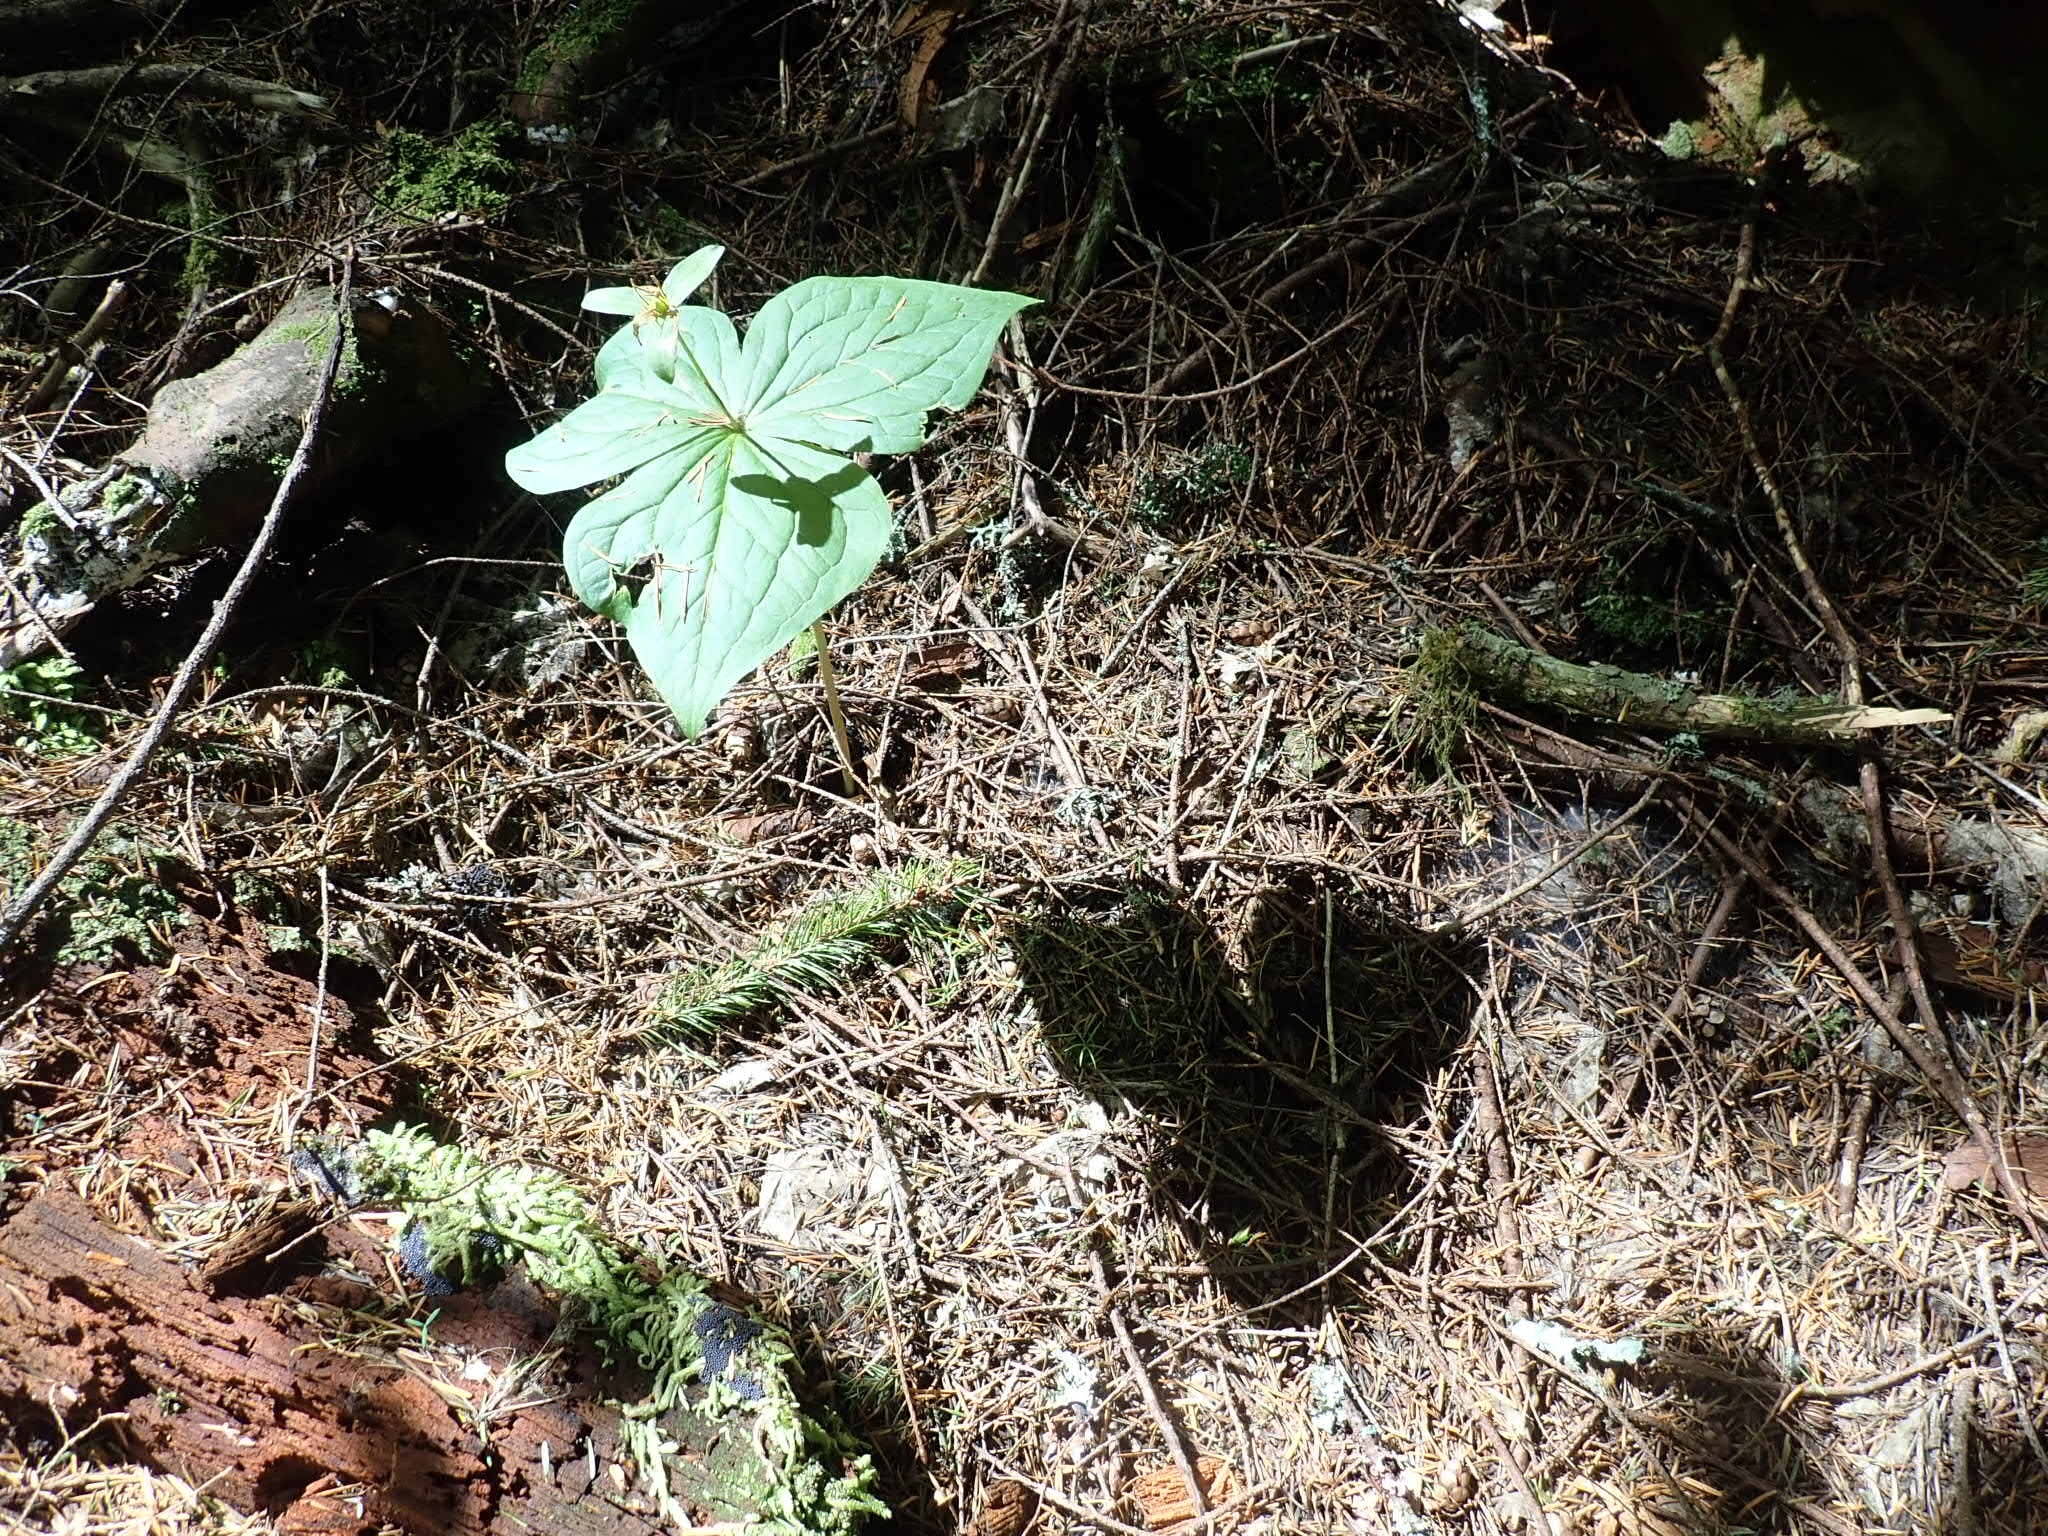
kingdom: Plantae
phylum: Tracheophyta
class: Liliopsida
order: Liliales
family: Melanthiaceae
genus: Trillium
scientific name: Trillium ovatum
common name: Pacific trillium
